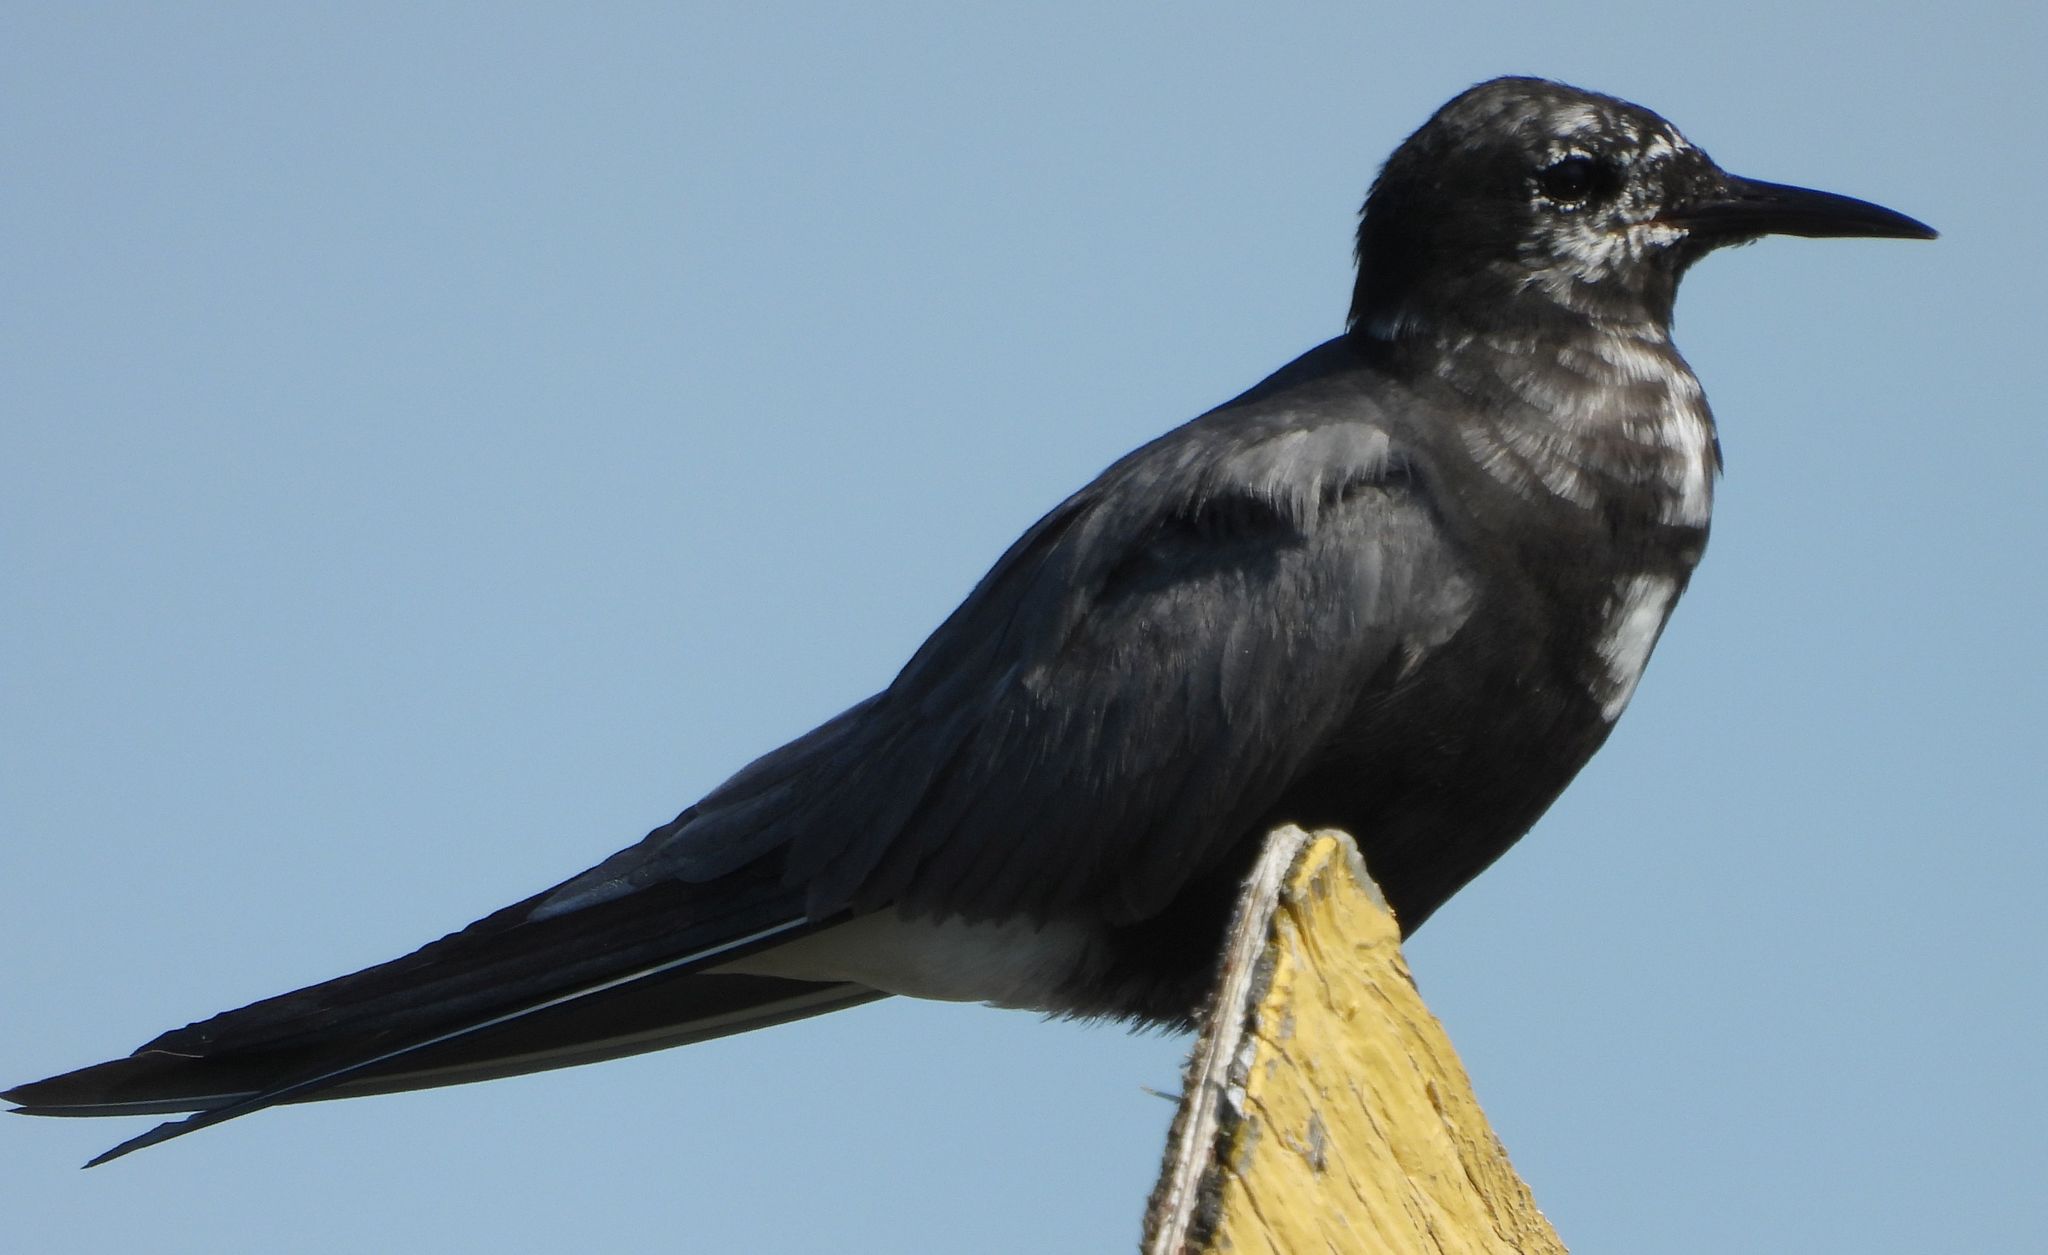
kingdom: Animalia
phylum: Chordata
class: Aves
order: Charadriiformes
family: Laridae
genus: Chlidonias
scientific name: Chlidonias niger
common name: Black tern
